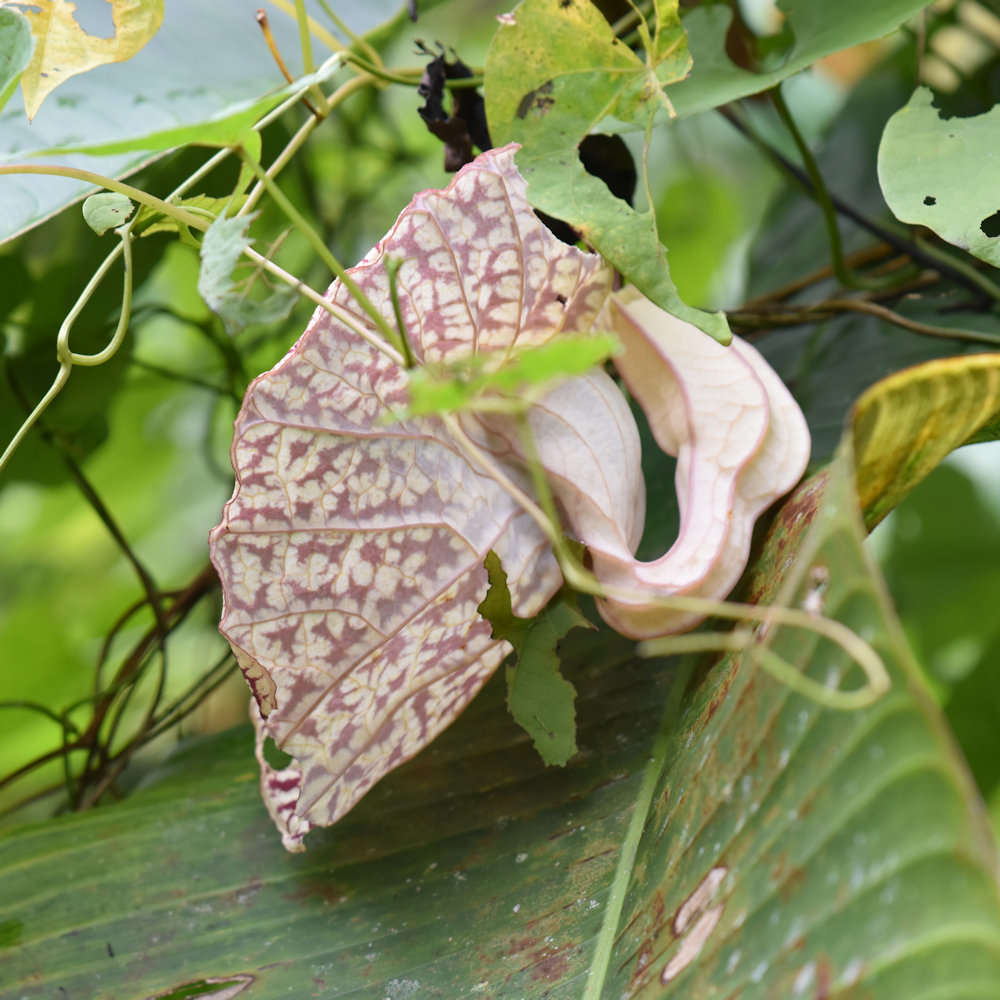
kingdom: Plantae
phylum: Tracheophyta
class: Magnoliopsida
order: Piperales
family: Aristolochiaceae
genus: Aristolochia
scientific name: Aristolochia grandiflora
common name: Pelicanflower
